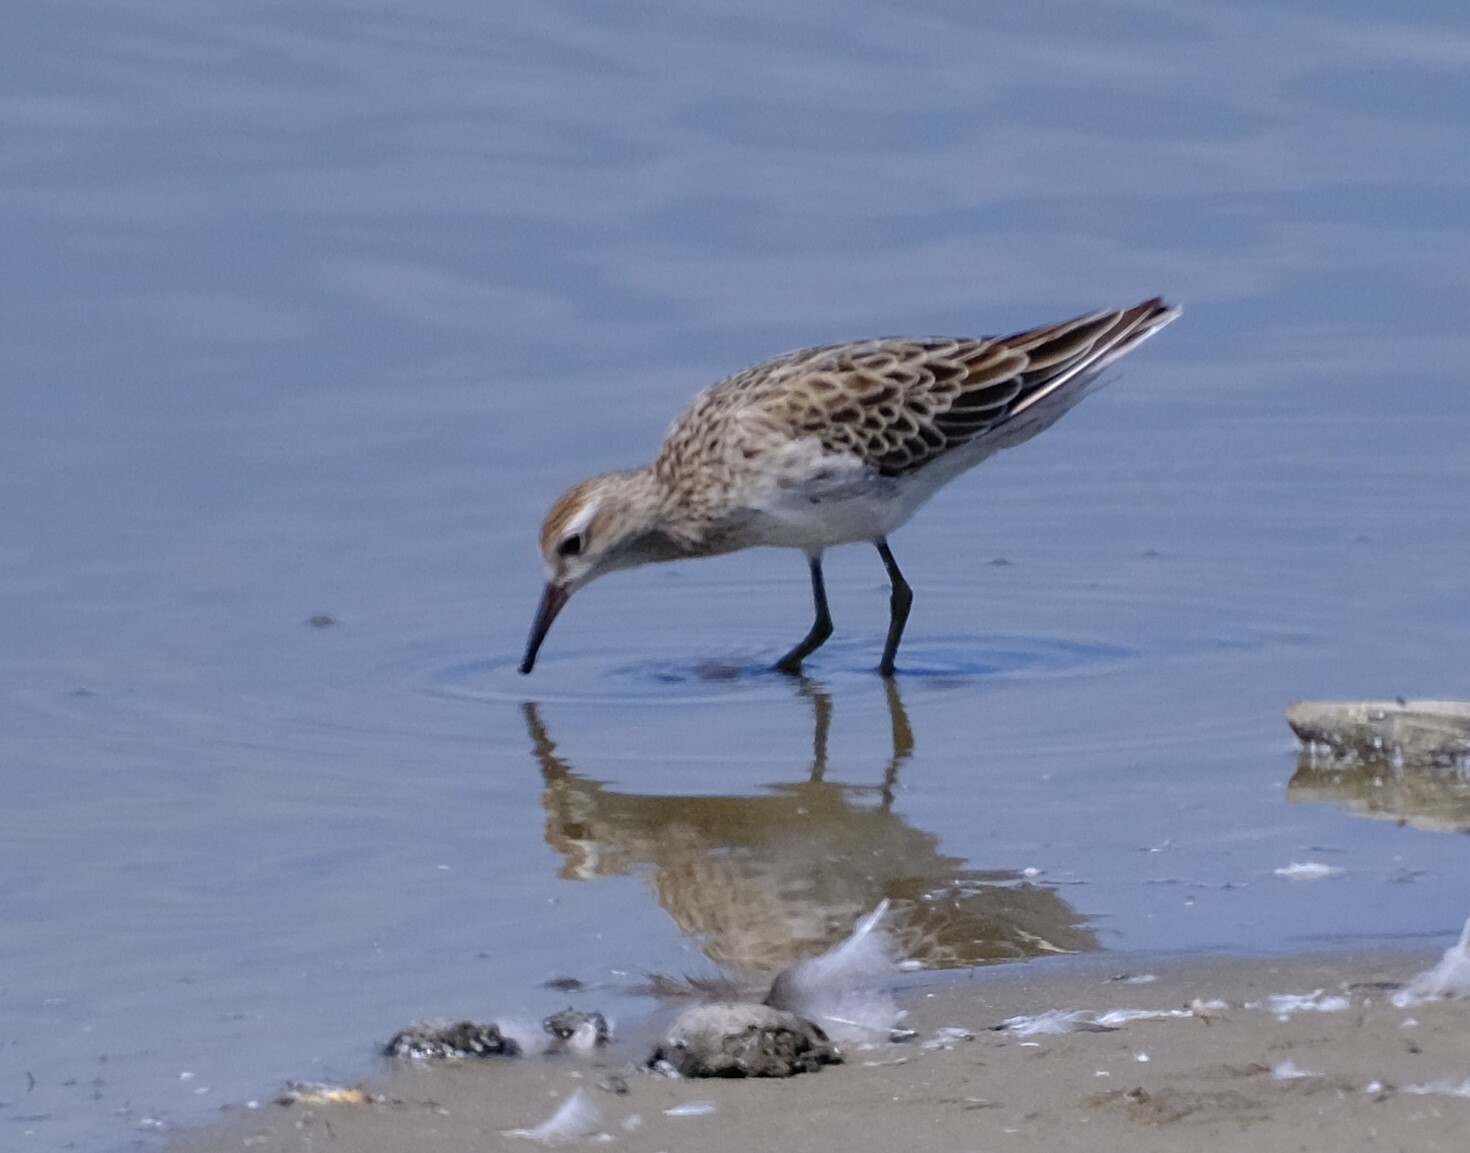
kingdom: Animalia
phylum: Chordata
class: Aves
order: Charadriiformes
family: Scolopacidae
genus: Calidris
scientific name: Calidris acuminata
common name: Sharp-tailed sandpiper
